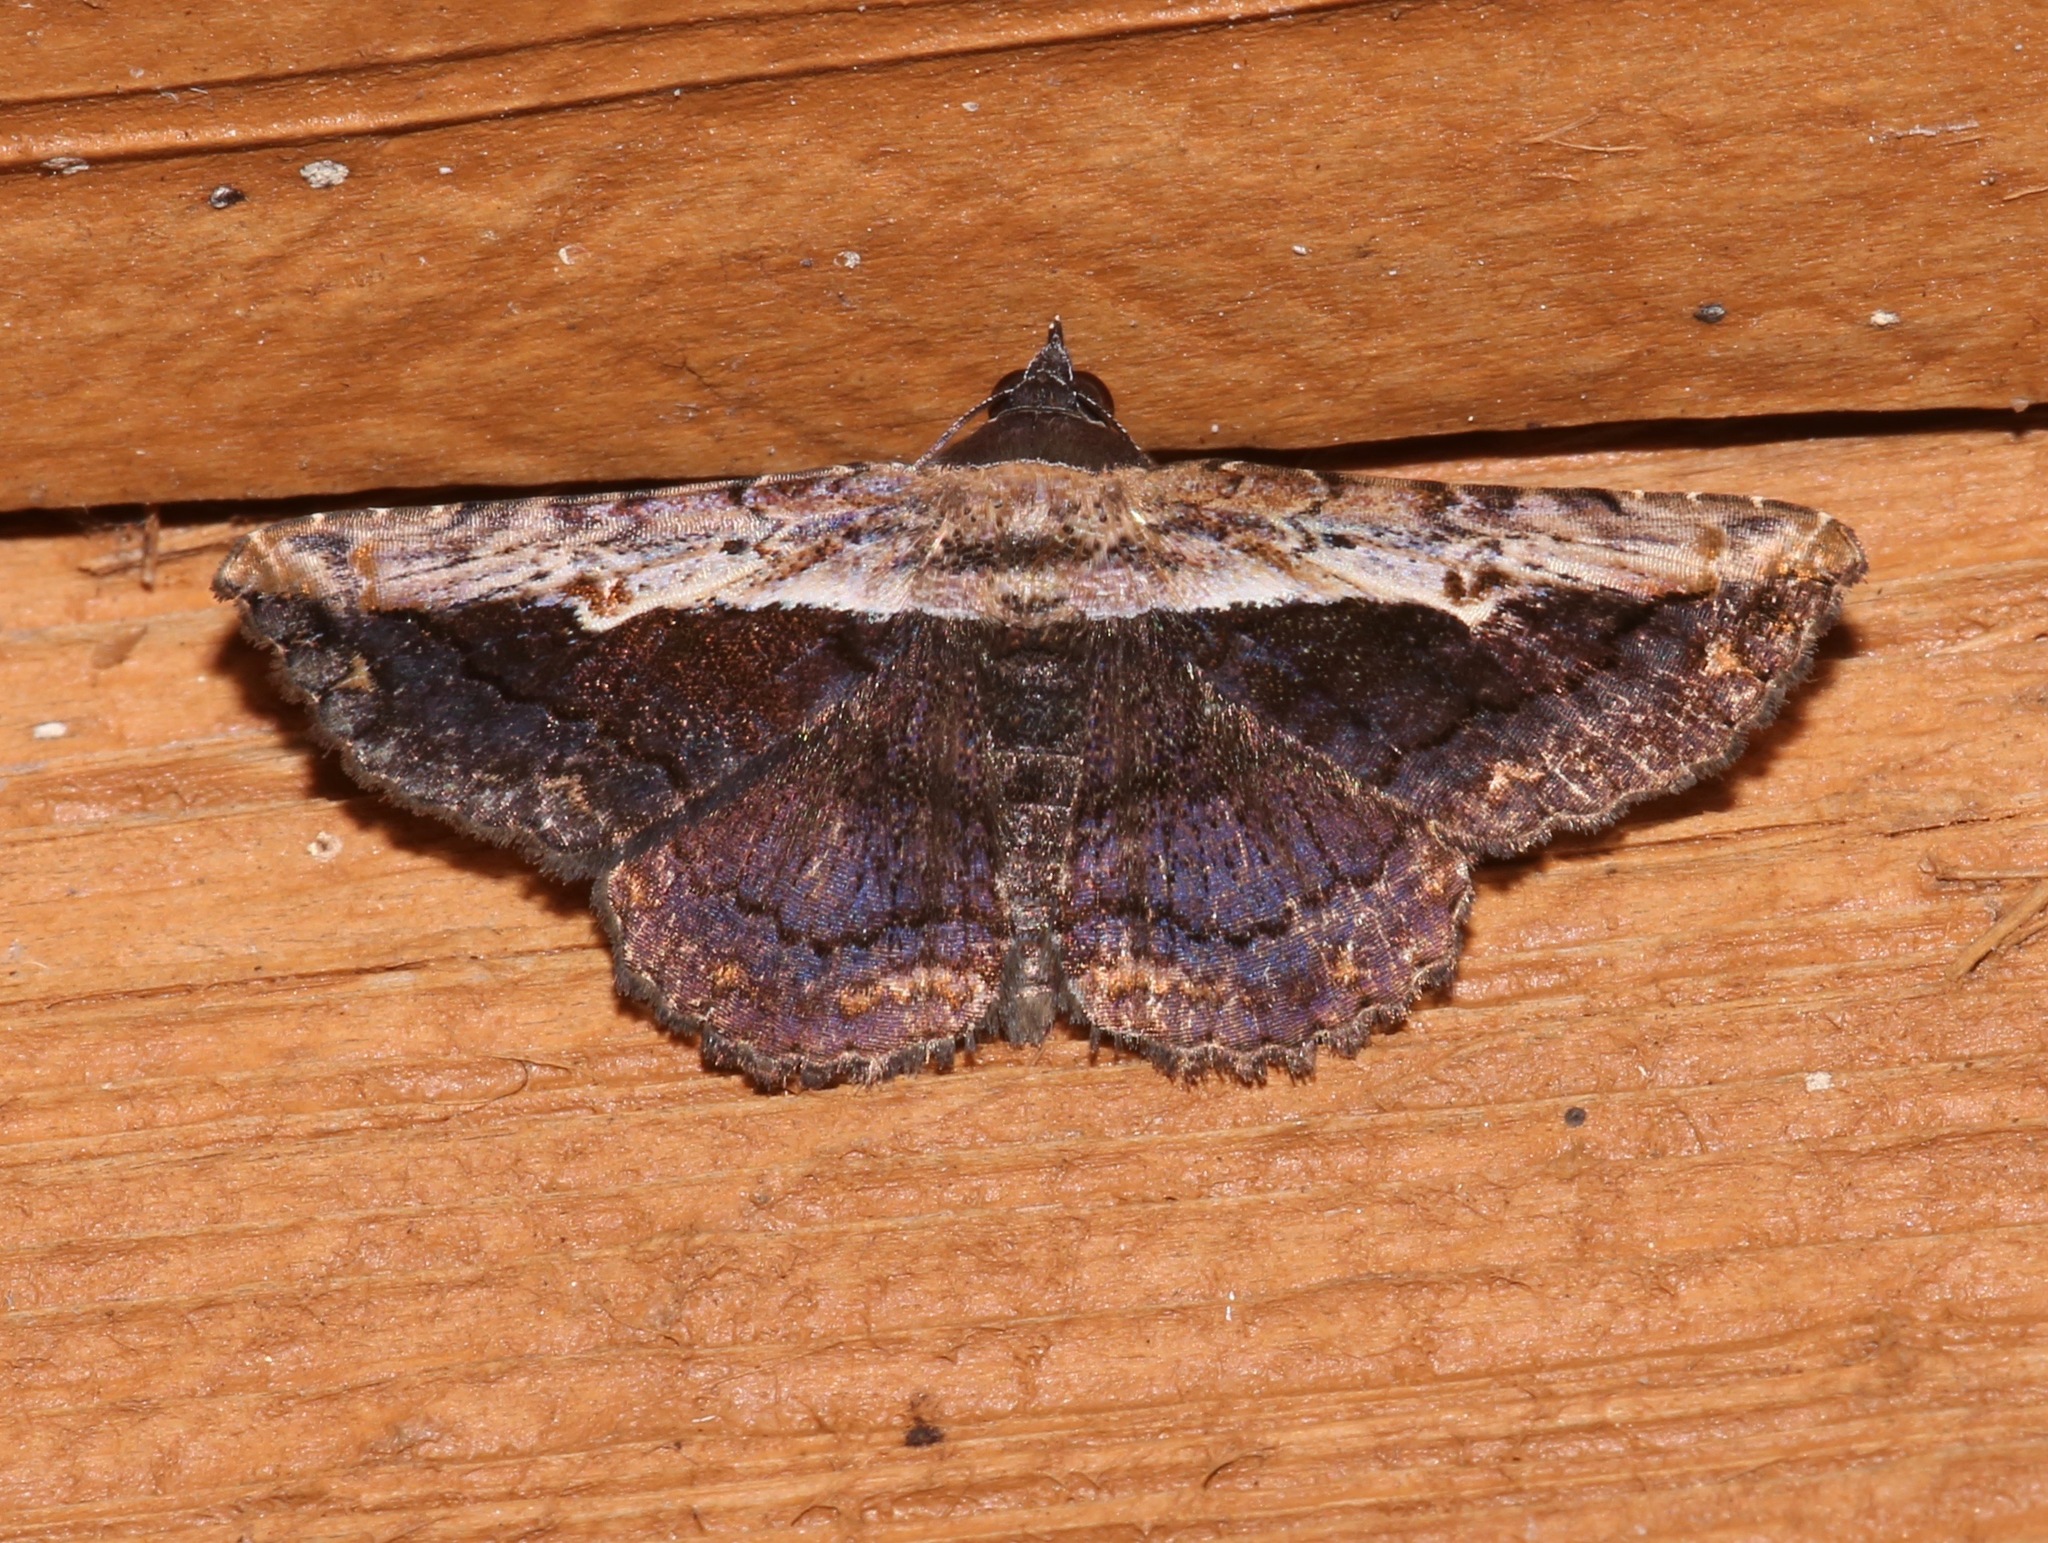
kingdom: Animalia
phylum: Arthropoda
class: Insecta
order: Lepidoptera
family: Erebidae
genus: Selenisa
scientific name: Selenisa sueroides
